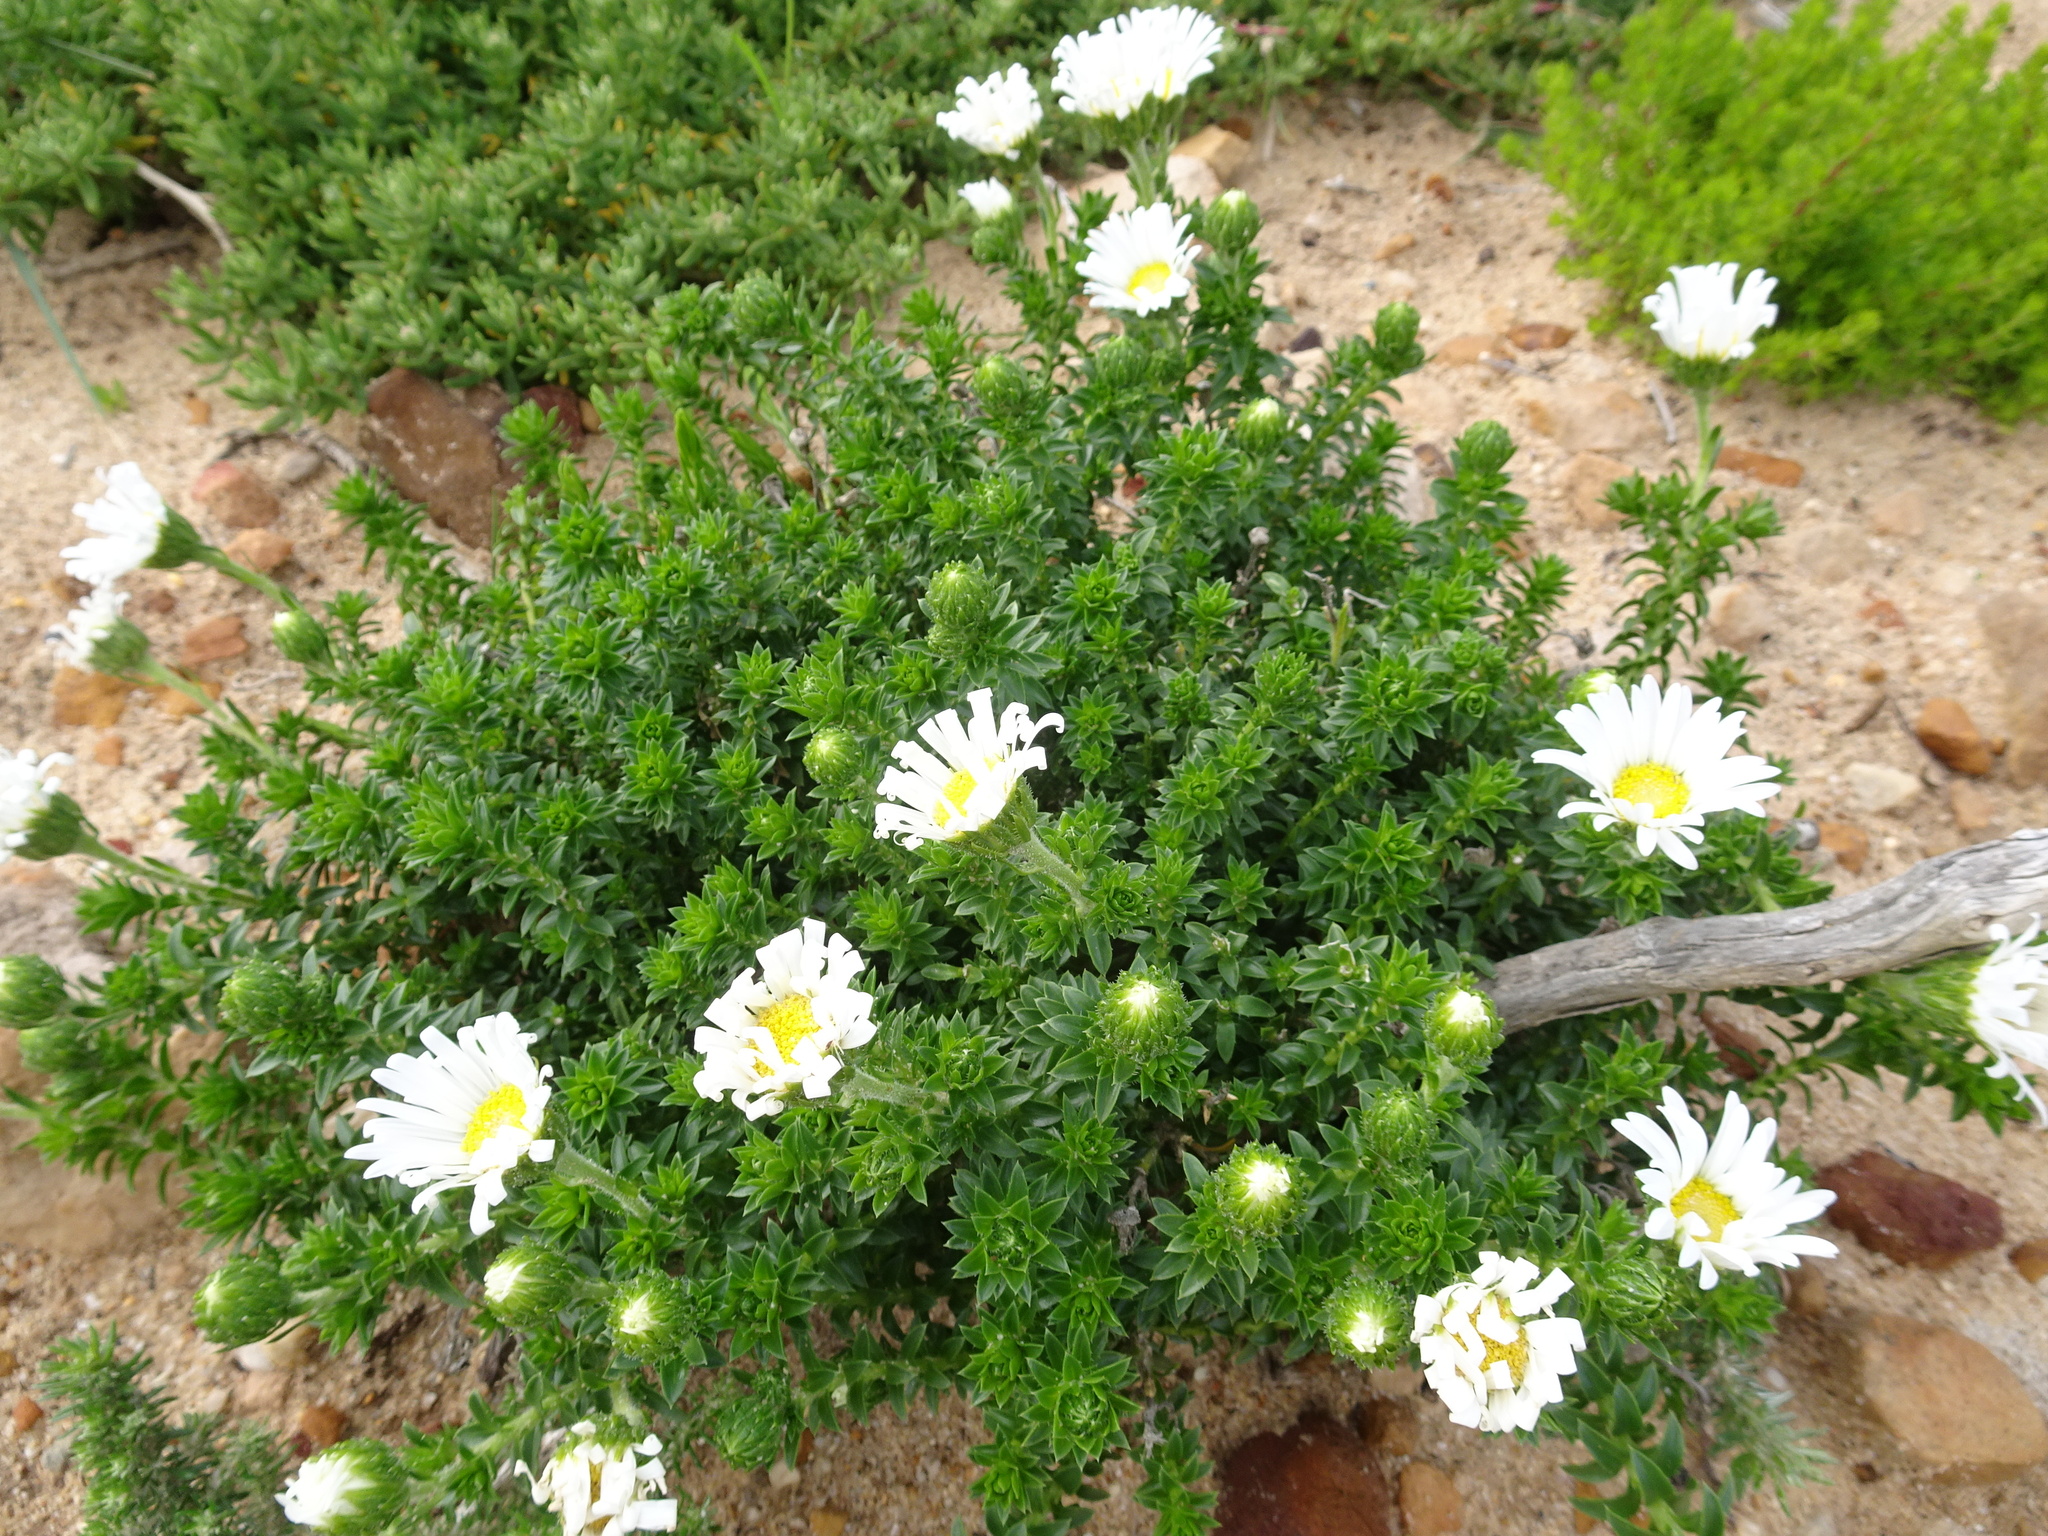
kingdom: Plantae
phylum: Tracheophyta
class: Magnoliopsida
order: Asterales
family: Asteraceae
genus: Felicia
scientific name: Felicia echinata
